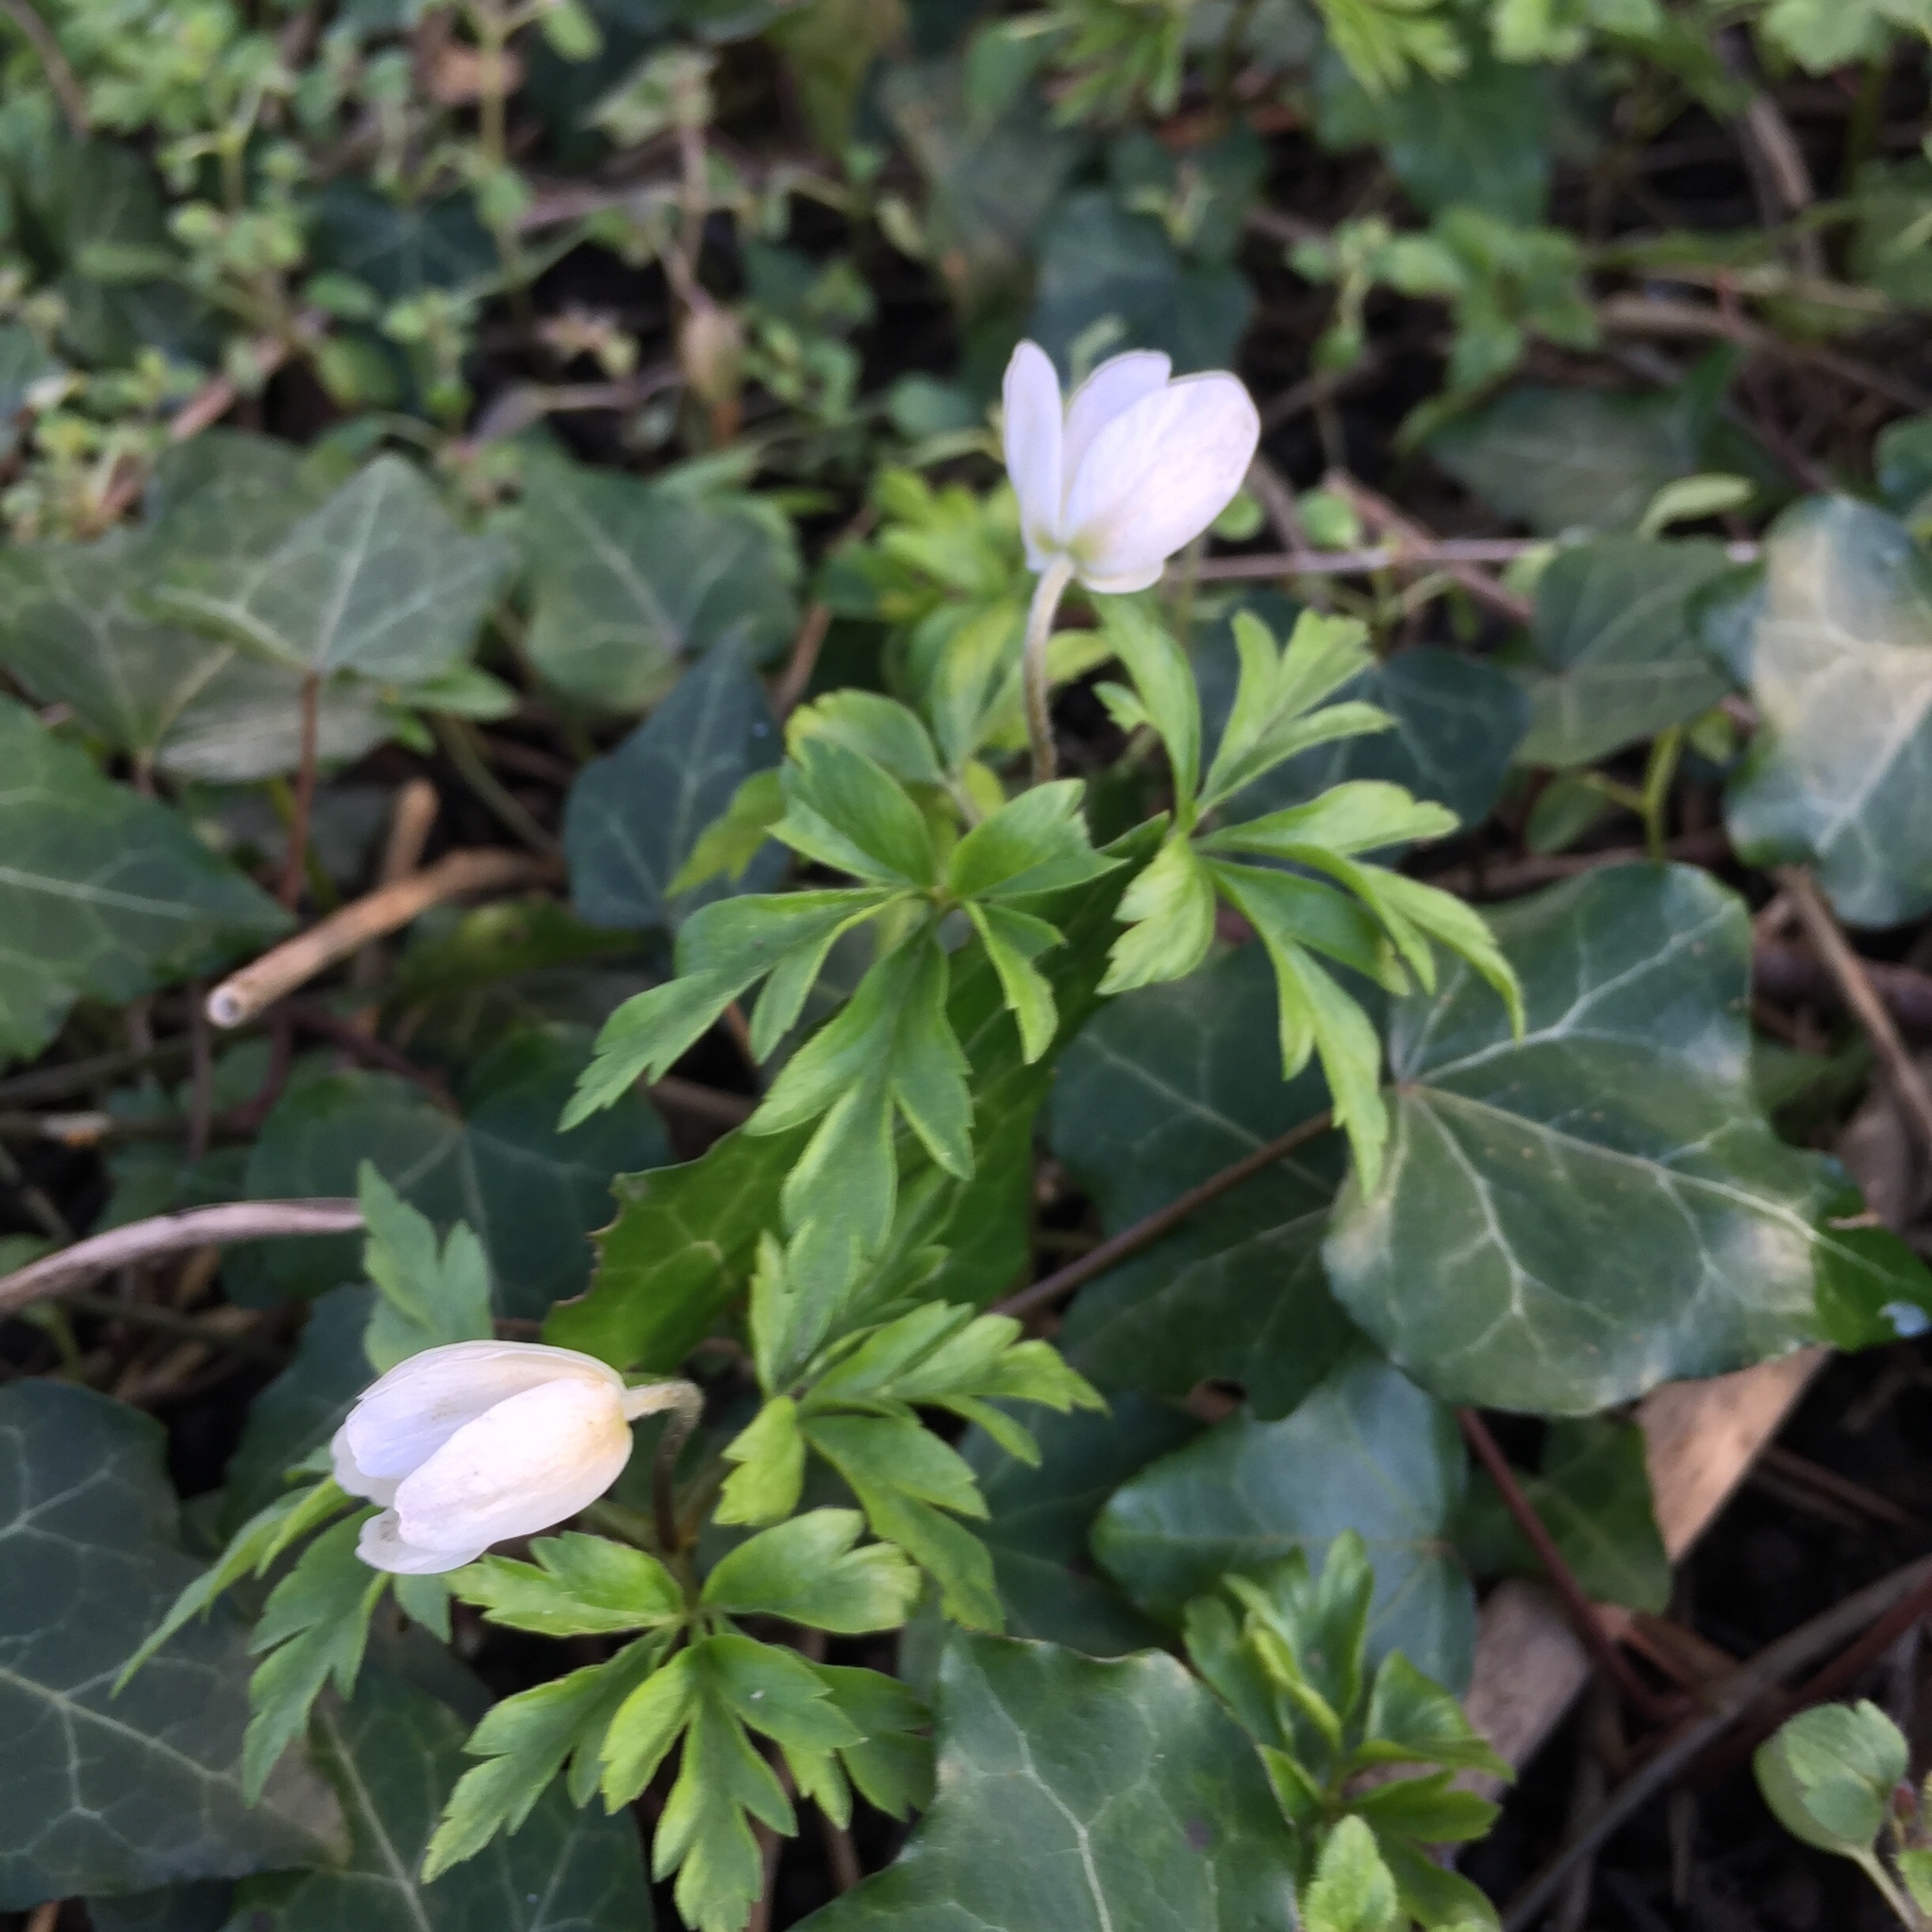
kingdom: Plantae
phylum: Tracheophyta
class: Magnoliopsida
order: Ranunculales
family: Ranunculaceae
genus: Anemone
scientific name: Anemone nemorosa
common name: Wood anemone
